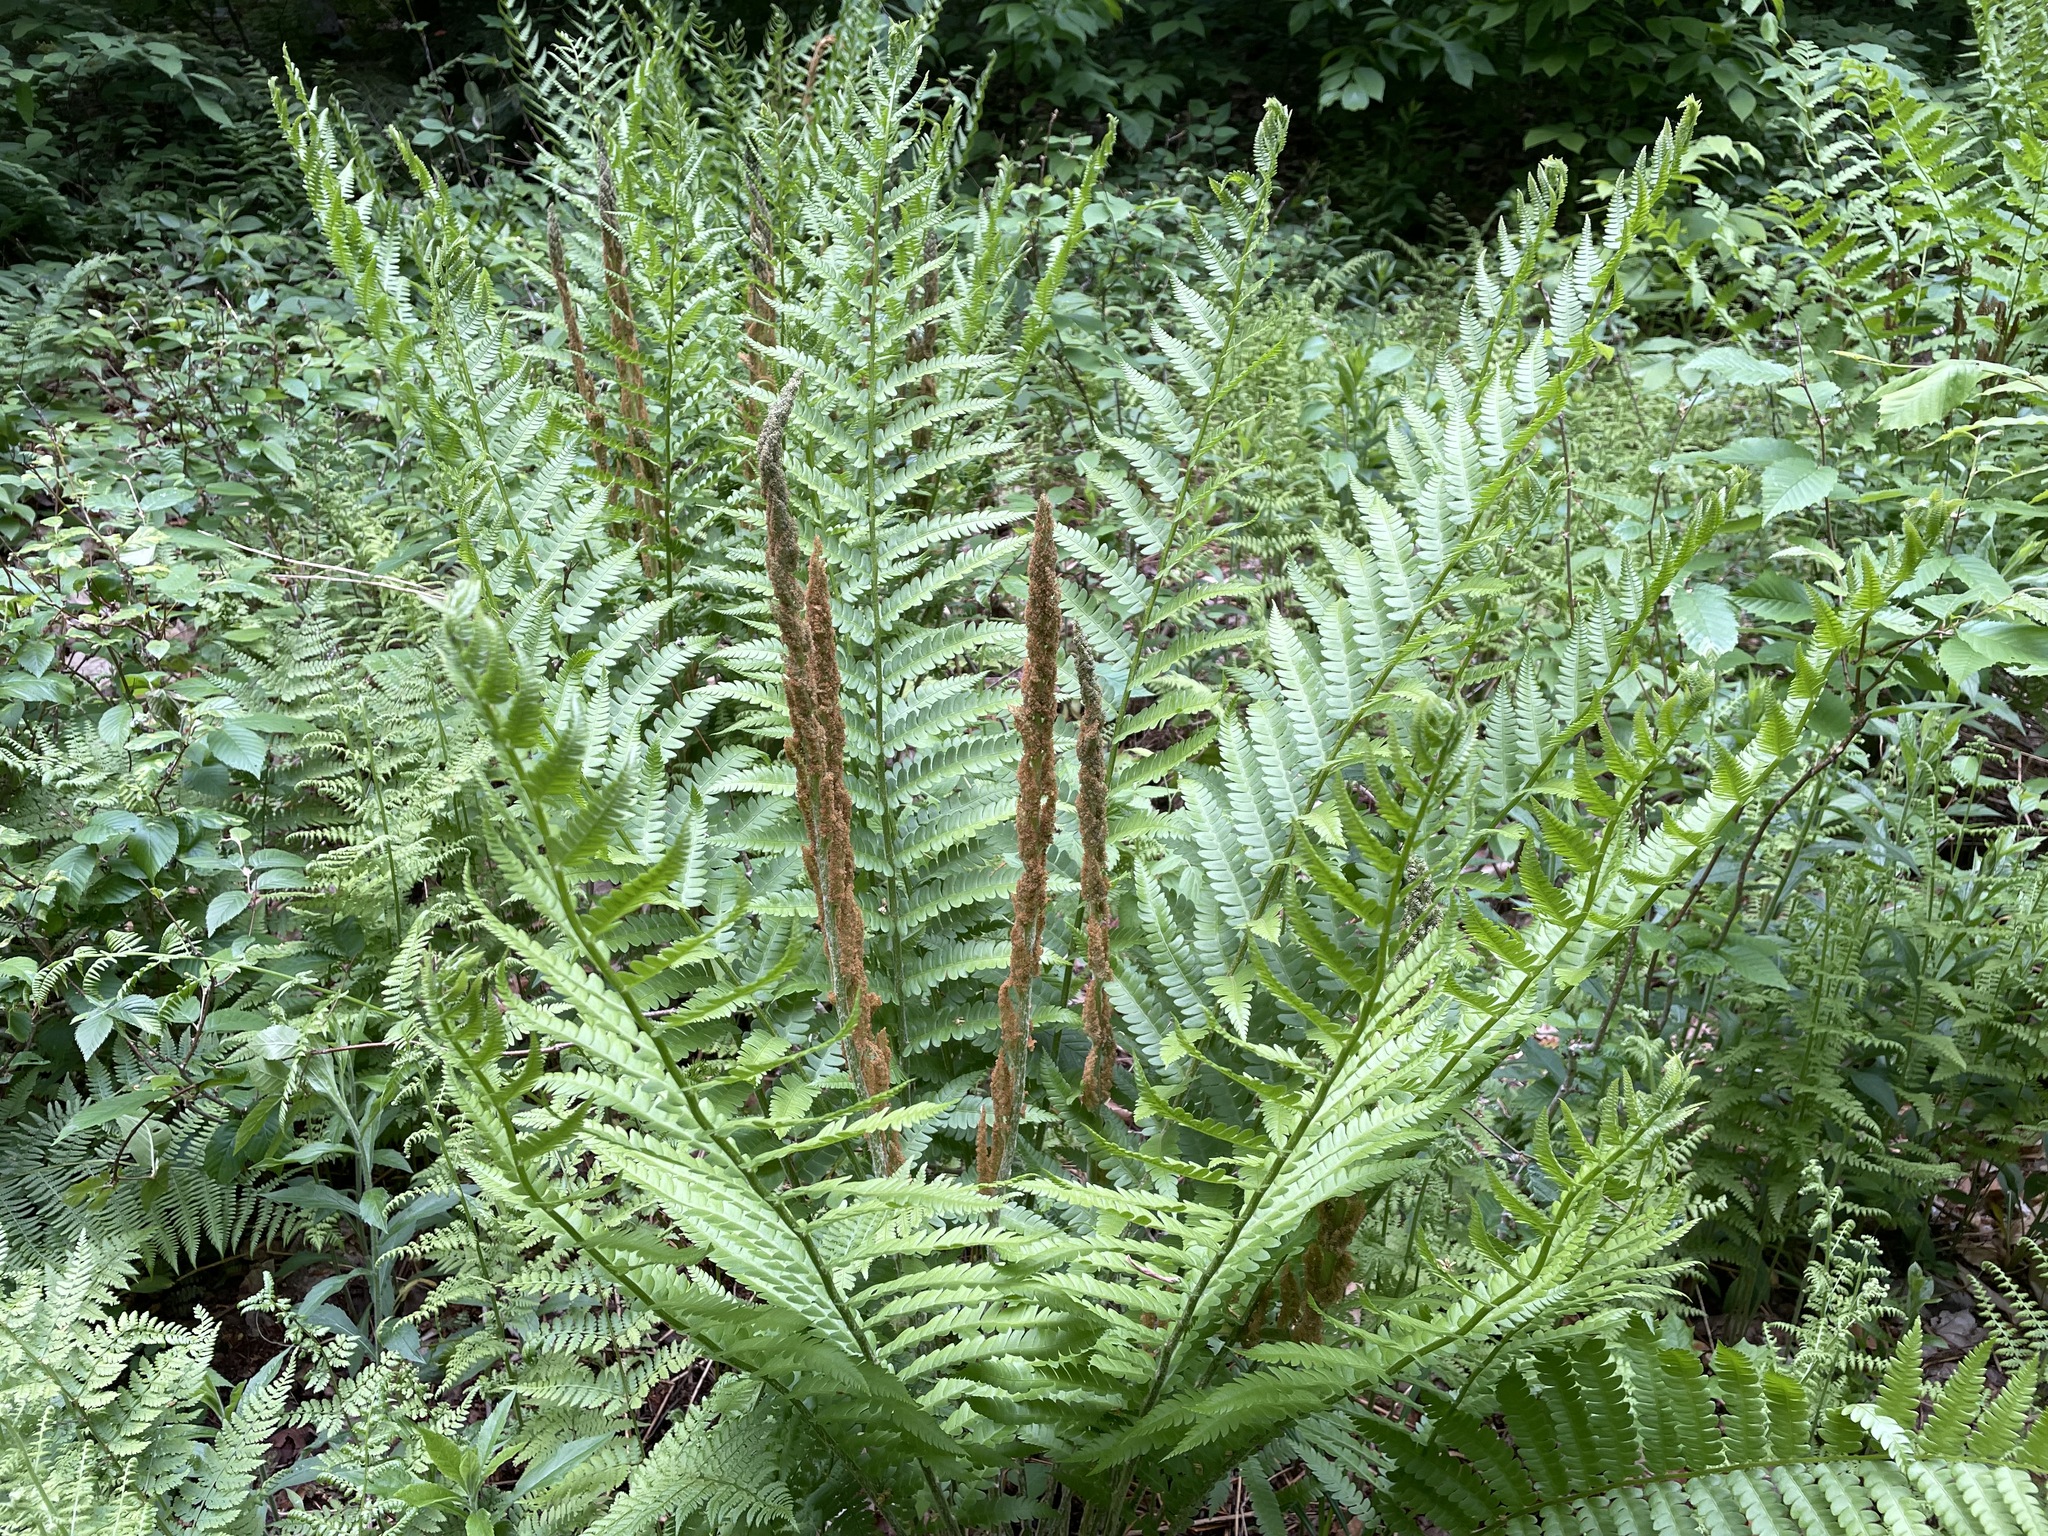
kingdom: Plantae
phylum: Tracheophyta
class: Polypodiopsida
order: Osmundales
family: Osmundaceae
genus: Osmundastrum
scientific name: Osmundastrum cinnamomeum
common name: Cinnamon fern
